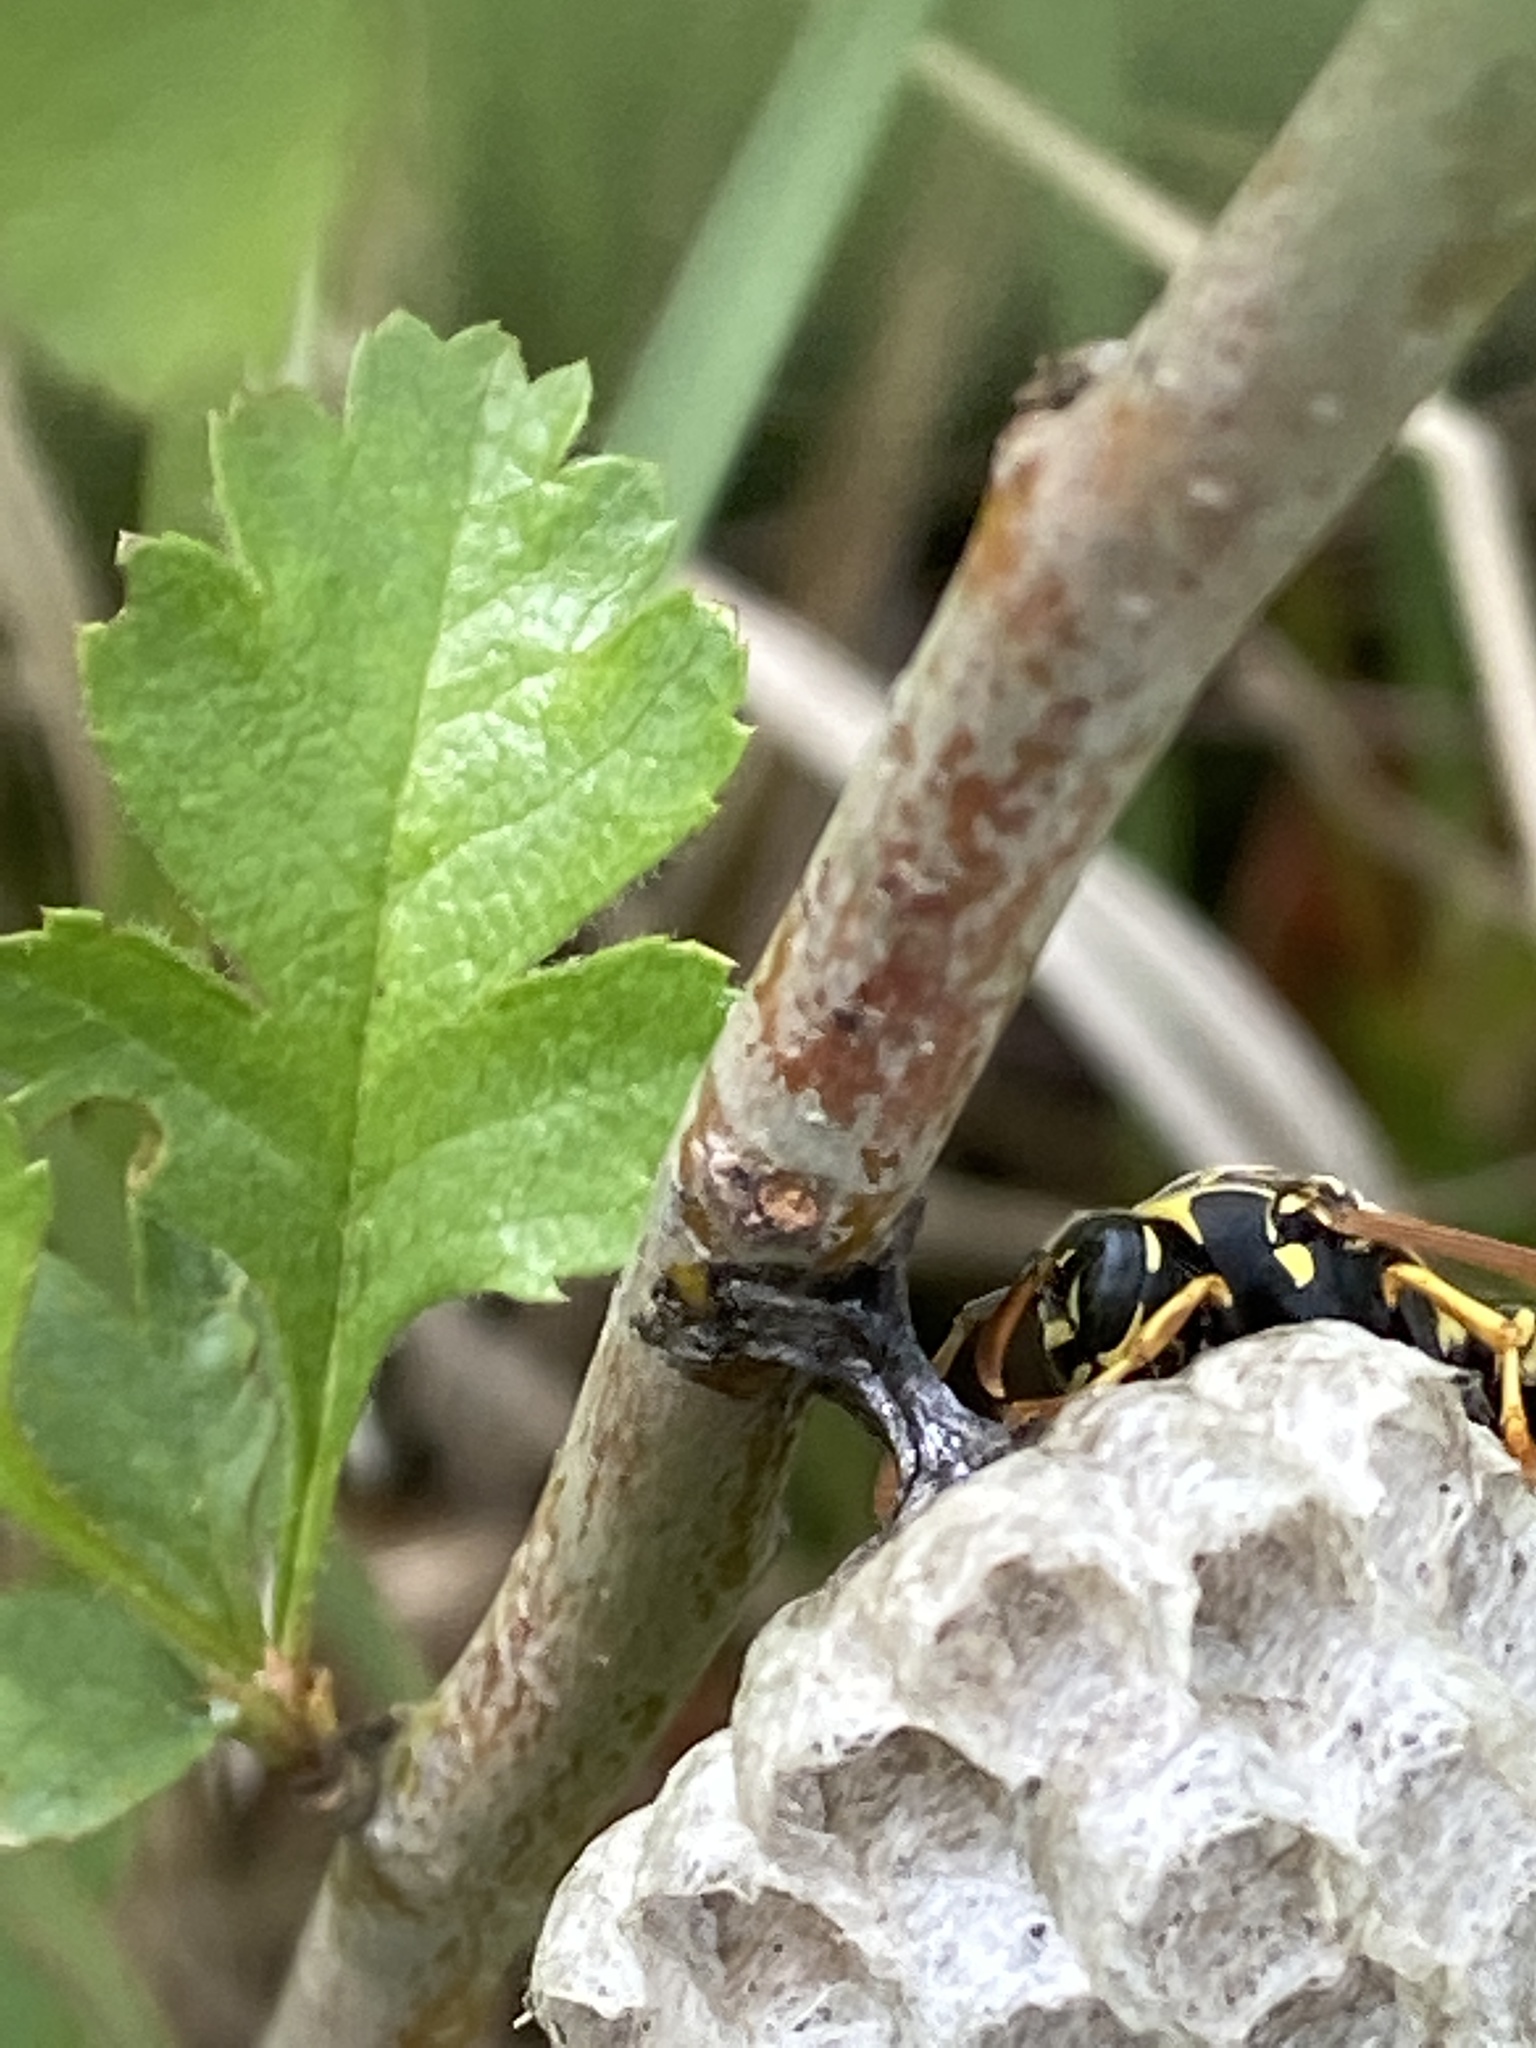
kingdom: Animalia
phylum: Arthropoda
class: Insecta
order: Hymenoptera
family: Eumenidae
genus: Polistes
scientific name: Polistes nimpha
